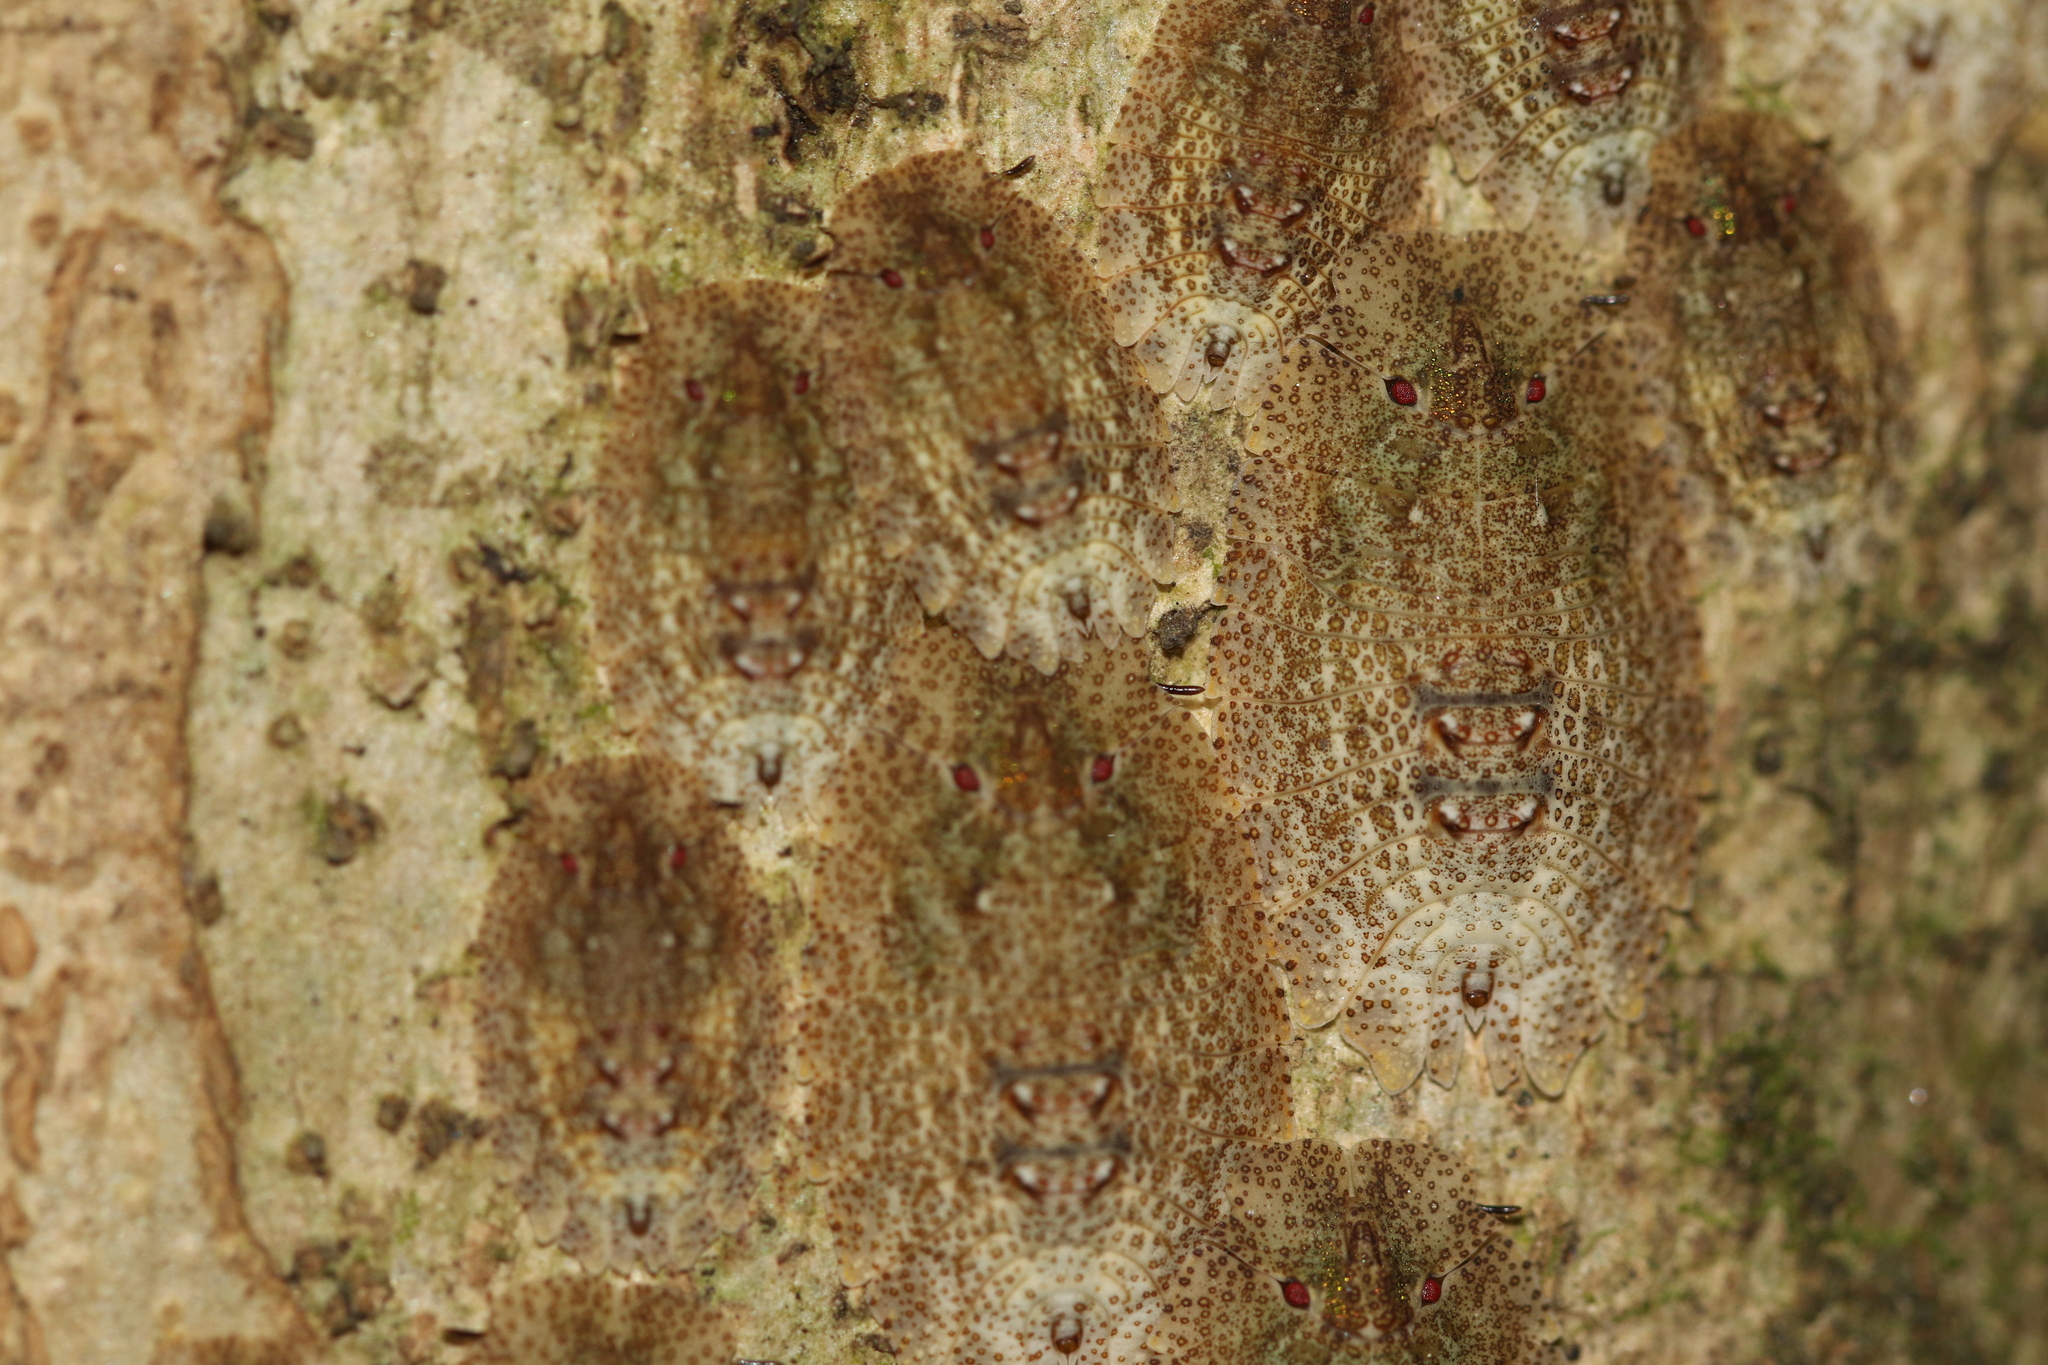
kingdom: Animalia
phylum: Arthropoda
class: Insecta
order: Hemiptera
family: Phleides
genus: Phloea
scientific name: Phloea
